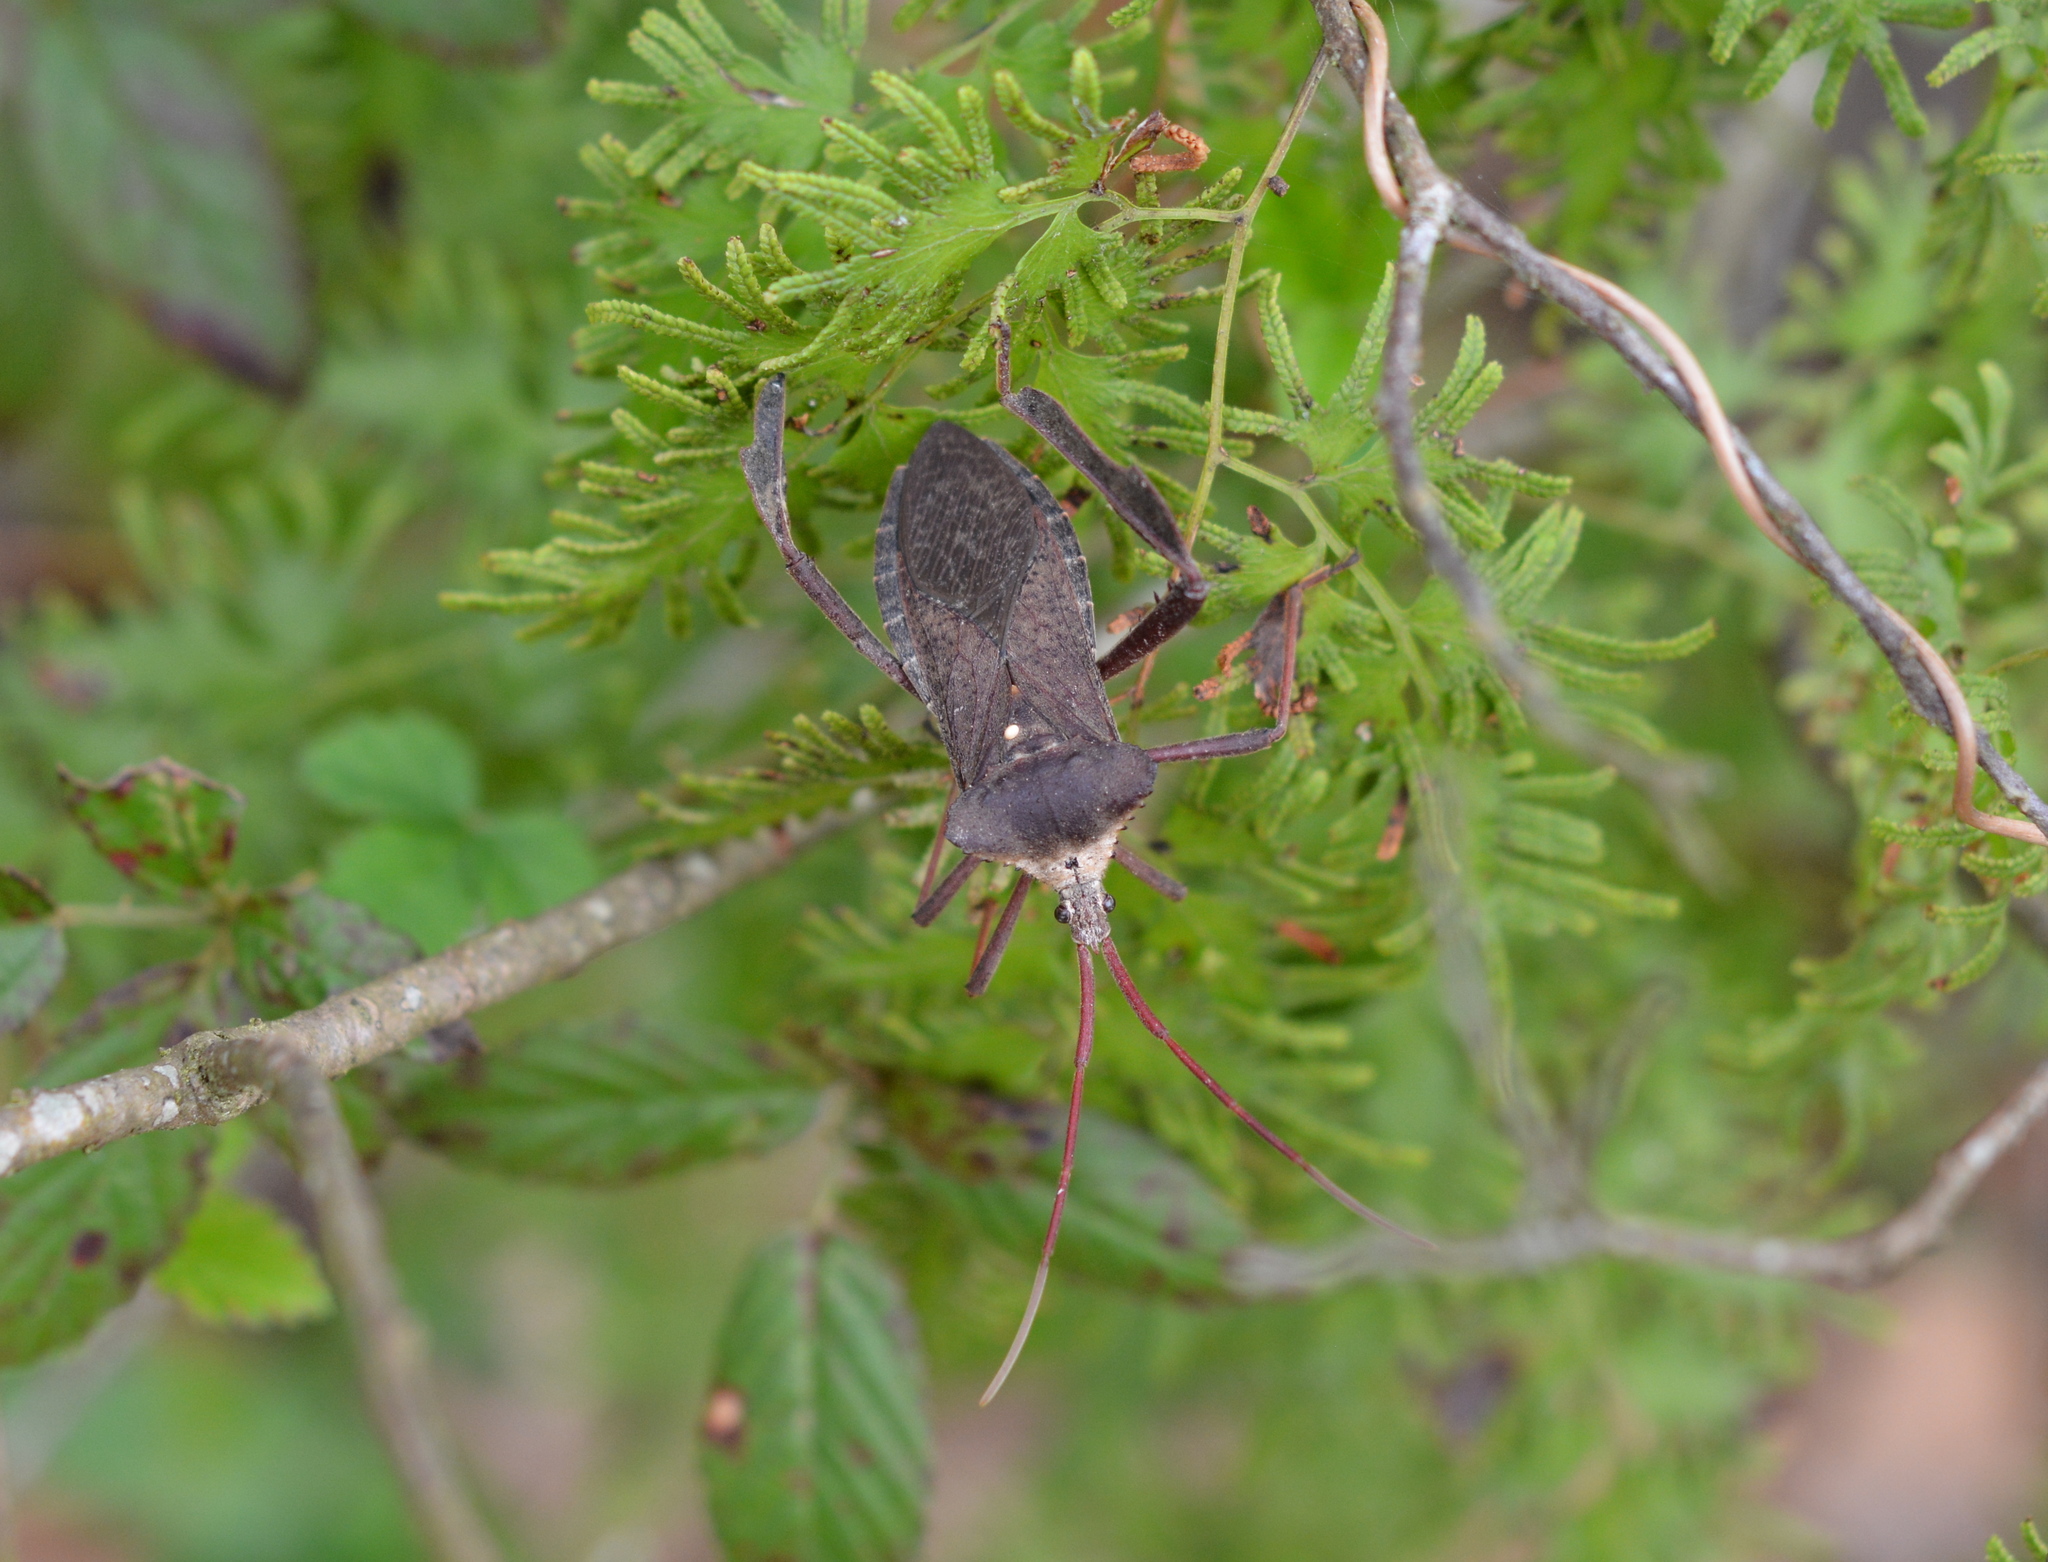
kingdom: Animalia
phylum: Arthropoda
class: Insecta
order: Hemiptera
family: Coreidae
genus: Acanthocephala
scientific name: Acanthocephala declivis
